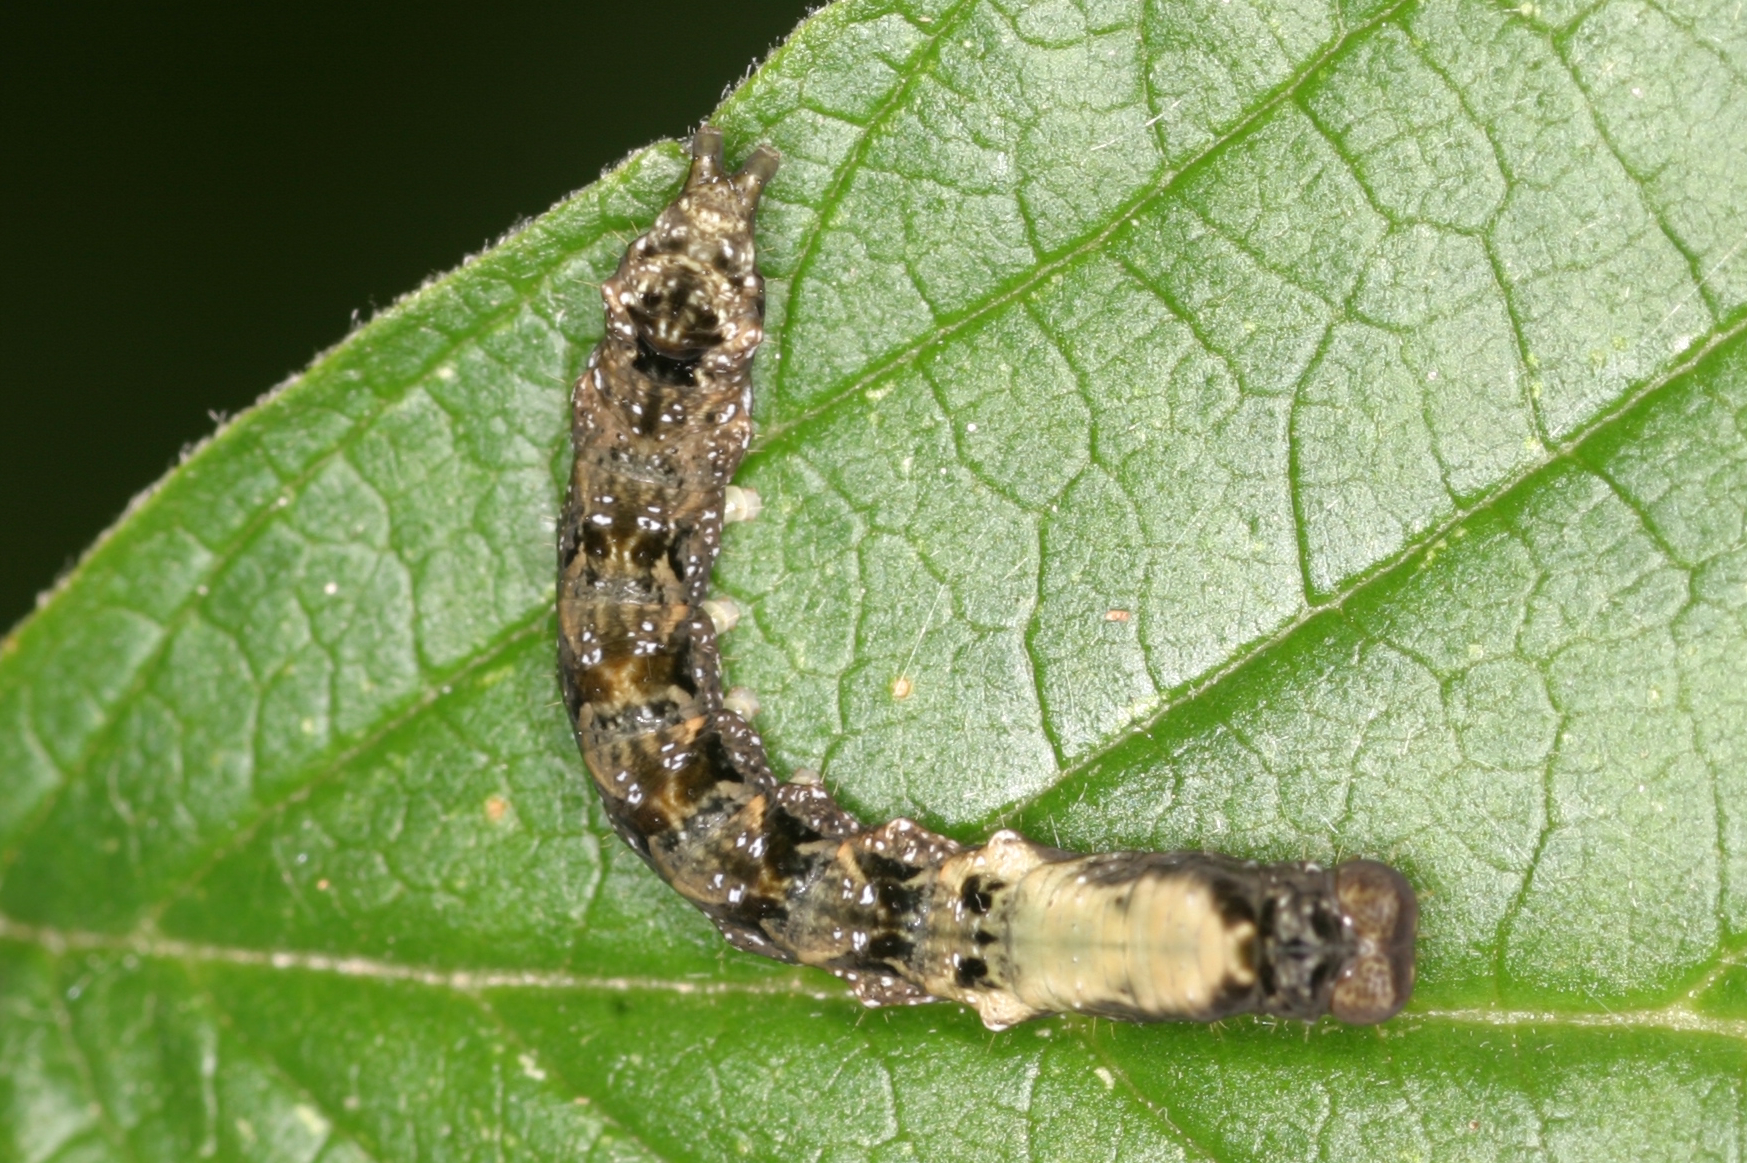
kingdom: Animalia
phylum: Arthropoda
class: Insecta
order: Lepidoptera
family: Drepanidae
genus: Thyatira
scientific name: Thyatira batis
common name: Peach blossom
